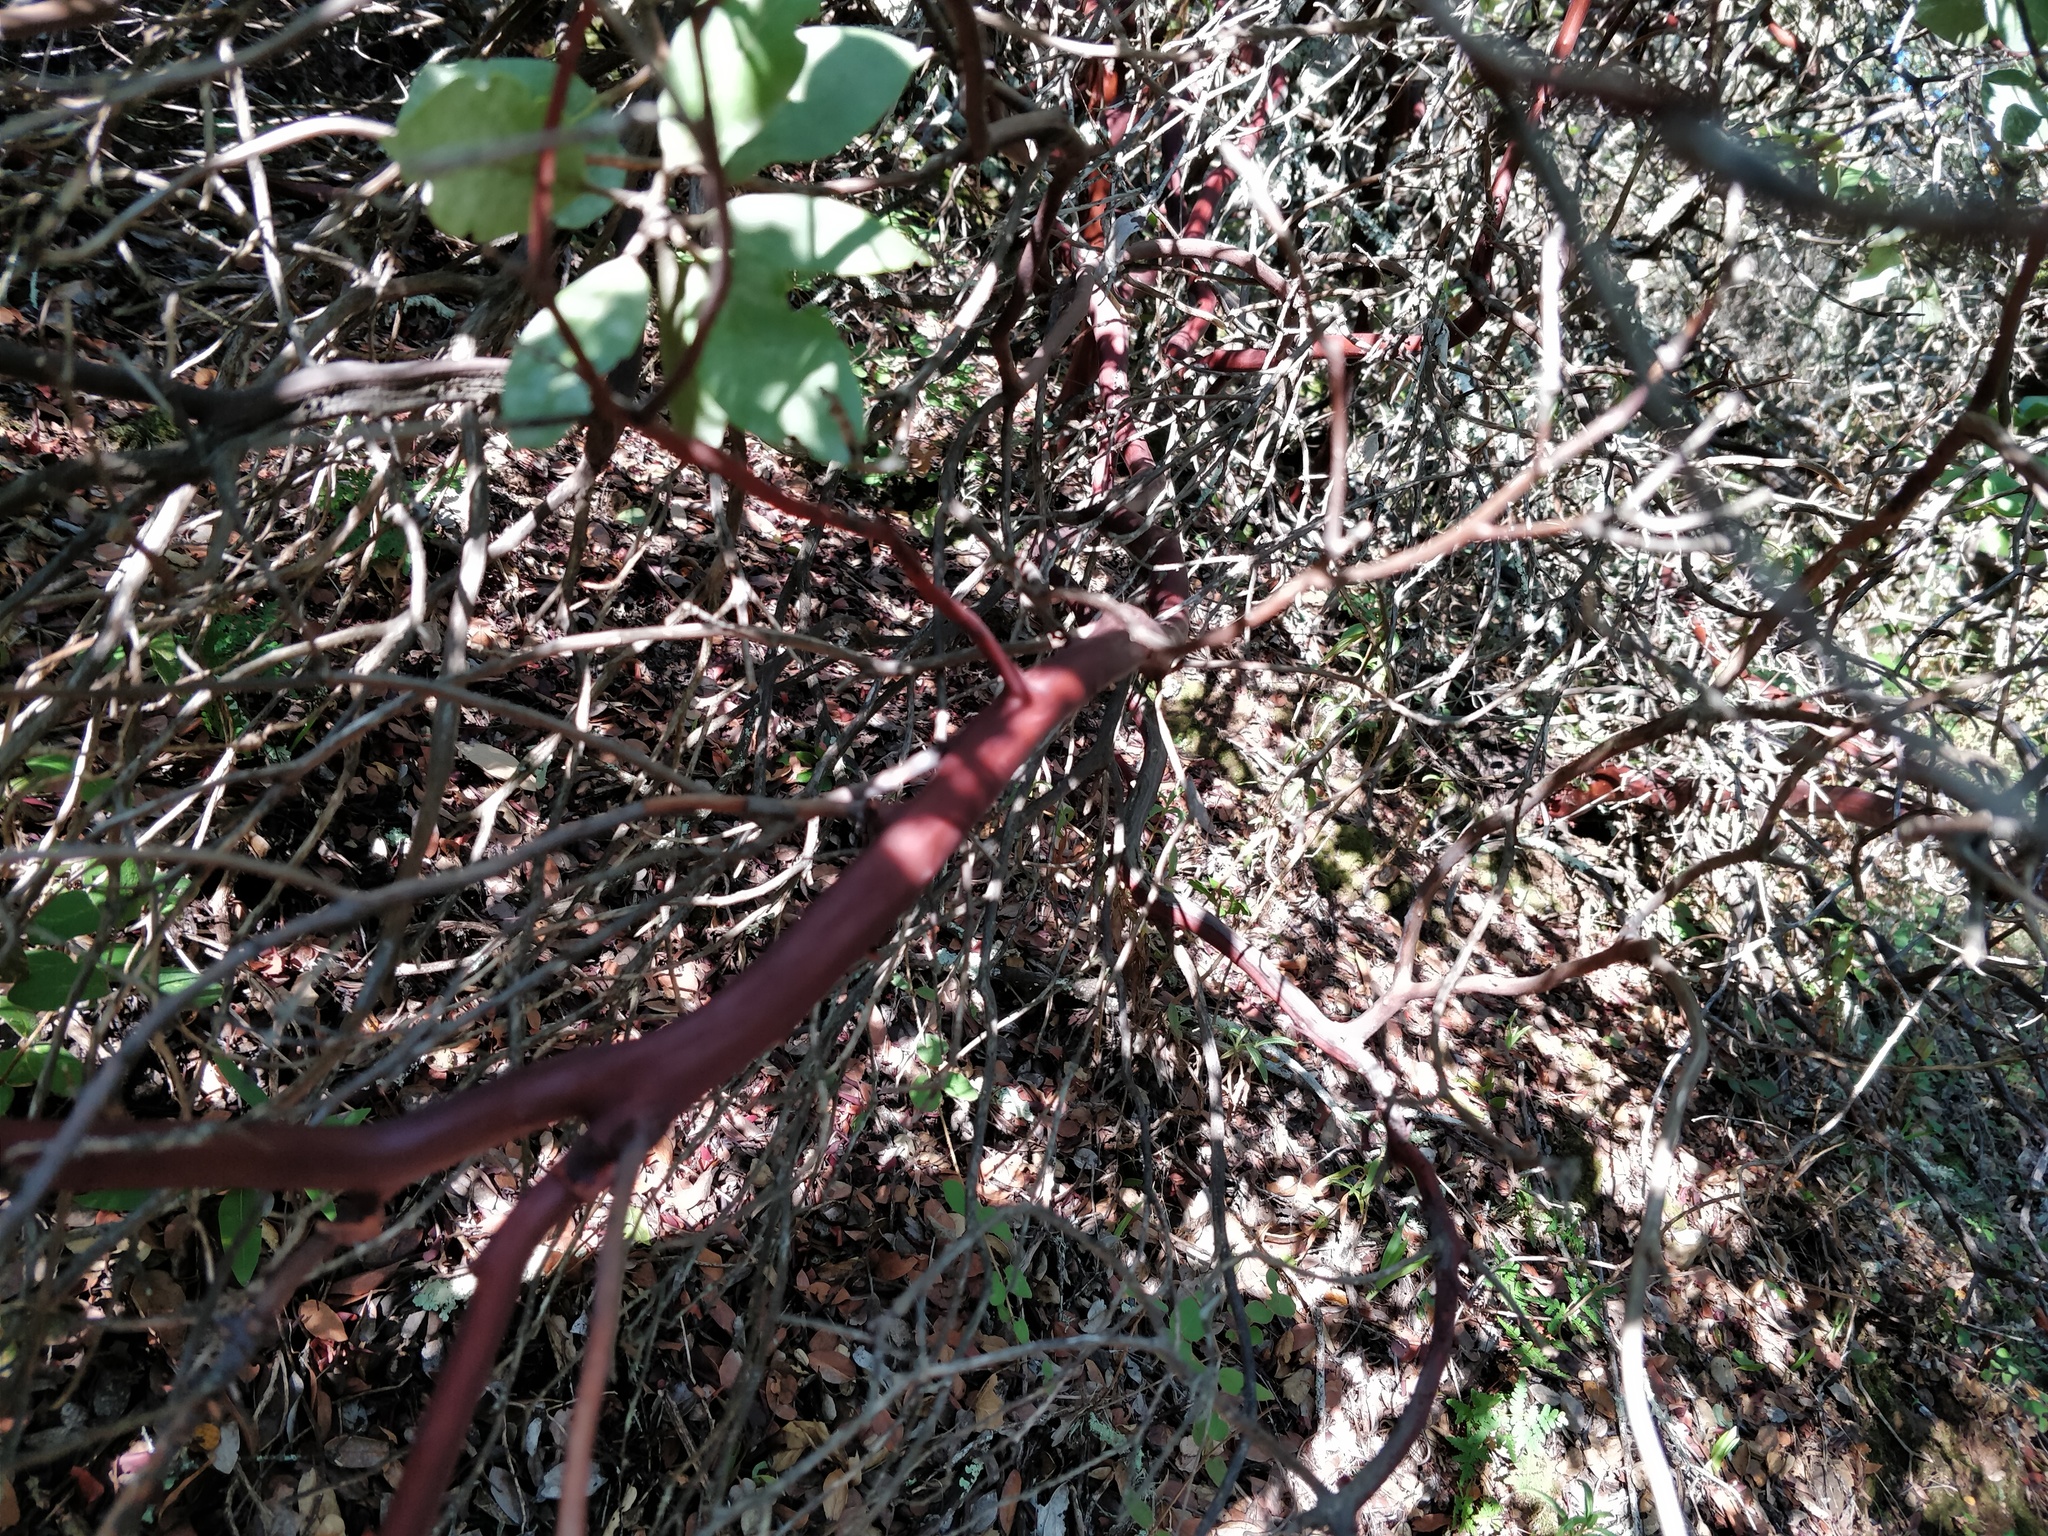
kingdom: Plantae
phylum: Tracheophyta
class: Magnoliopsida
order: Ericales
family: Ericaceae
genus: Arctostaphylos
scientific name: Arctostaphylos glandulosa
